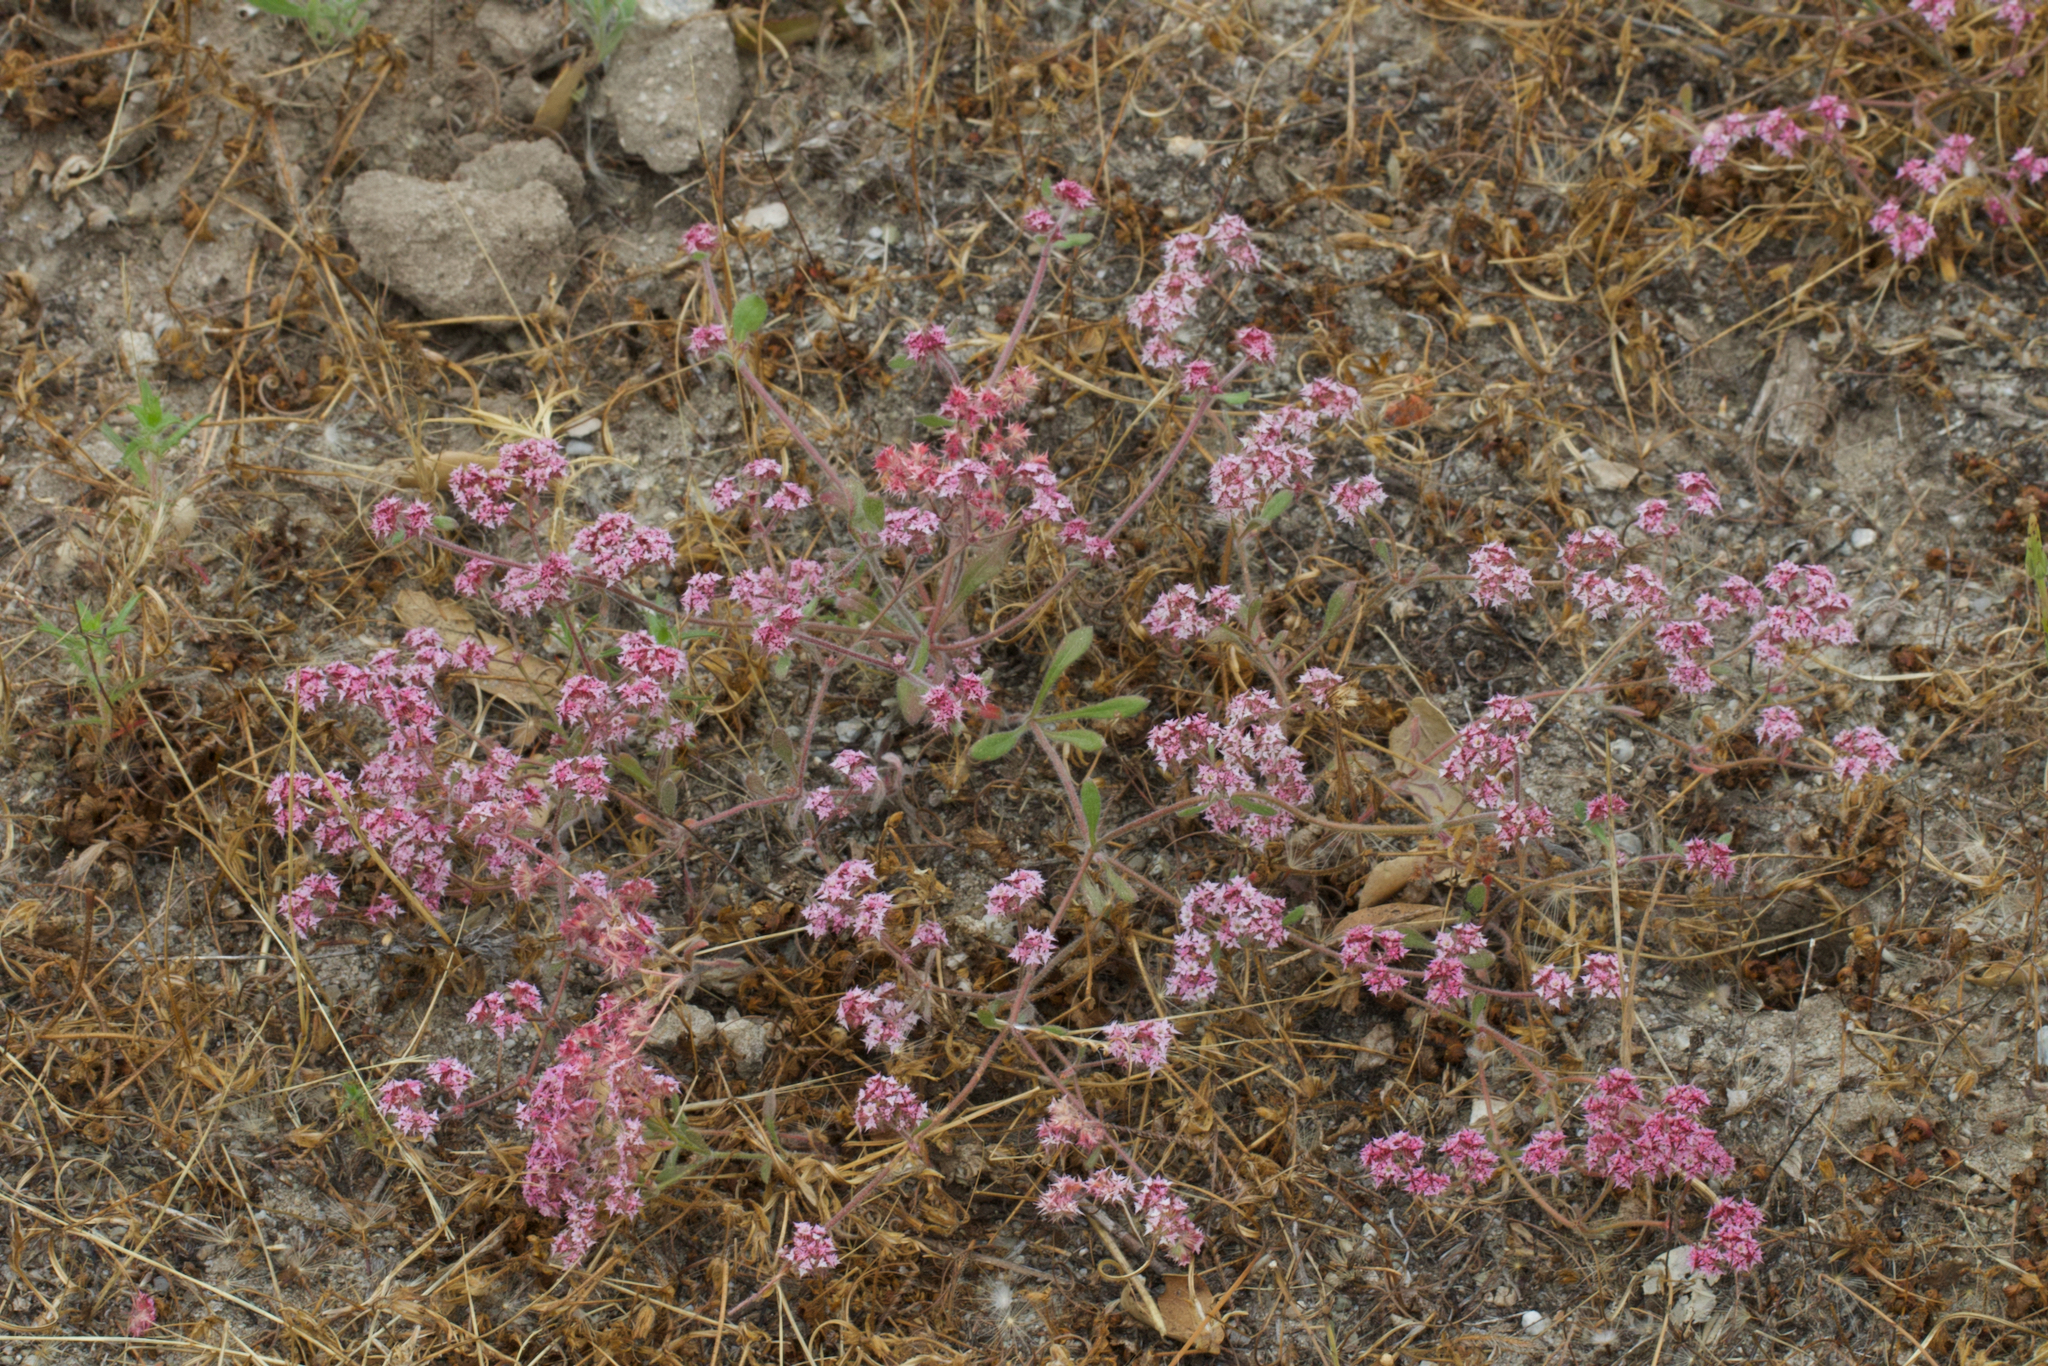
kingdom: Plantae
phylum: Tracheophyta
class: Magnoliopsida
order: Caryophyllales
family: Polygonaceae
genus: Chorizanthe
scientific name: Chorizanthe pungens
